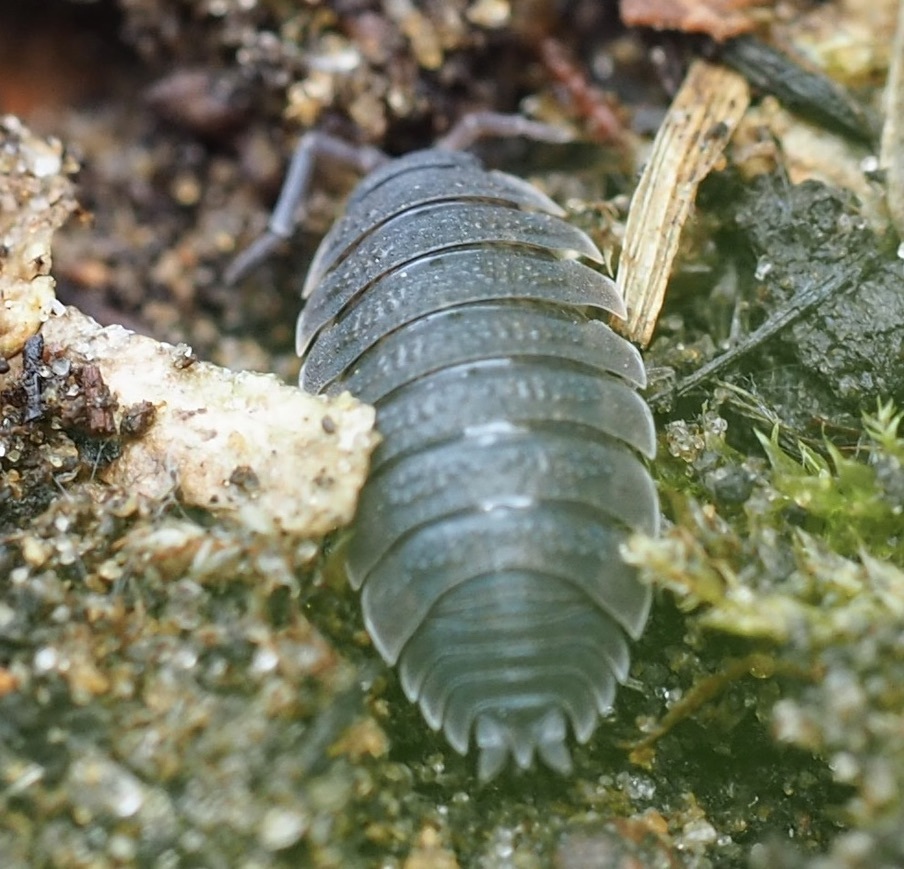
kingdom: Animalia
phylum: Arthropoda
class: Malacostraca
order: Isopoda
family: Porcellionidae
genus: Porcellio
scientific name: Porcellio scaber
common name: Common rough woodlouse
